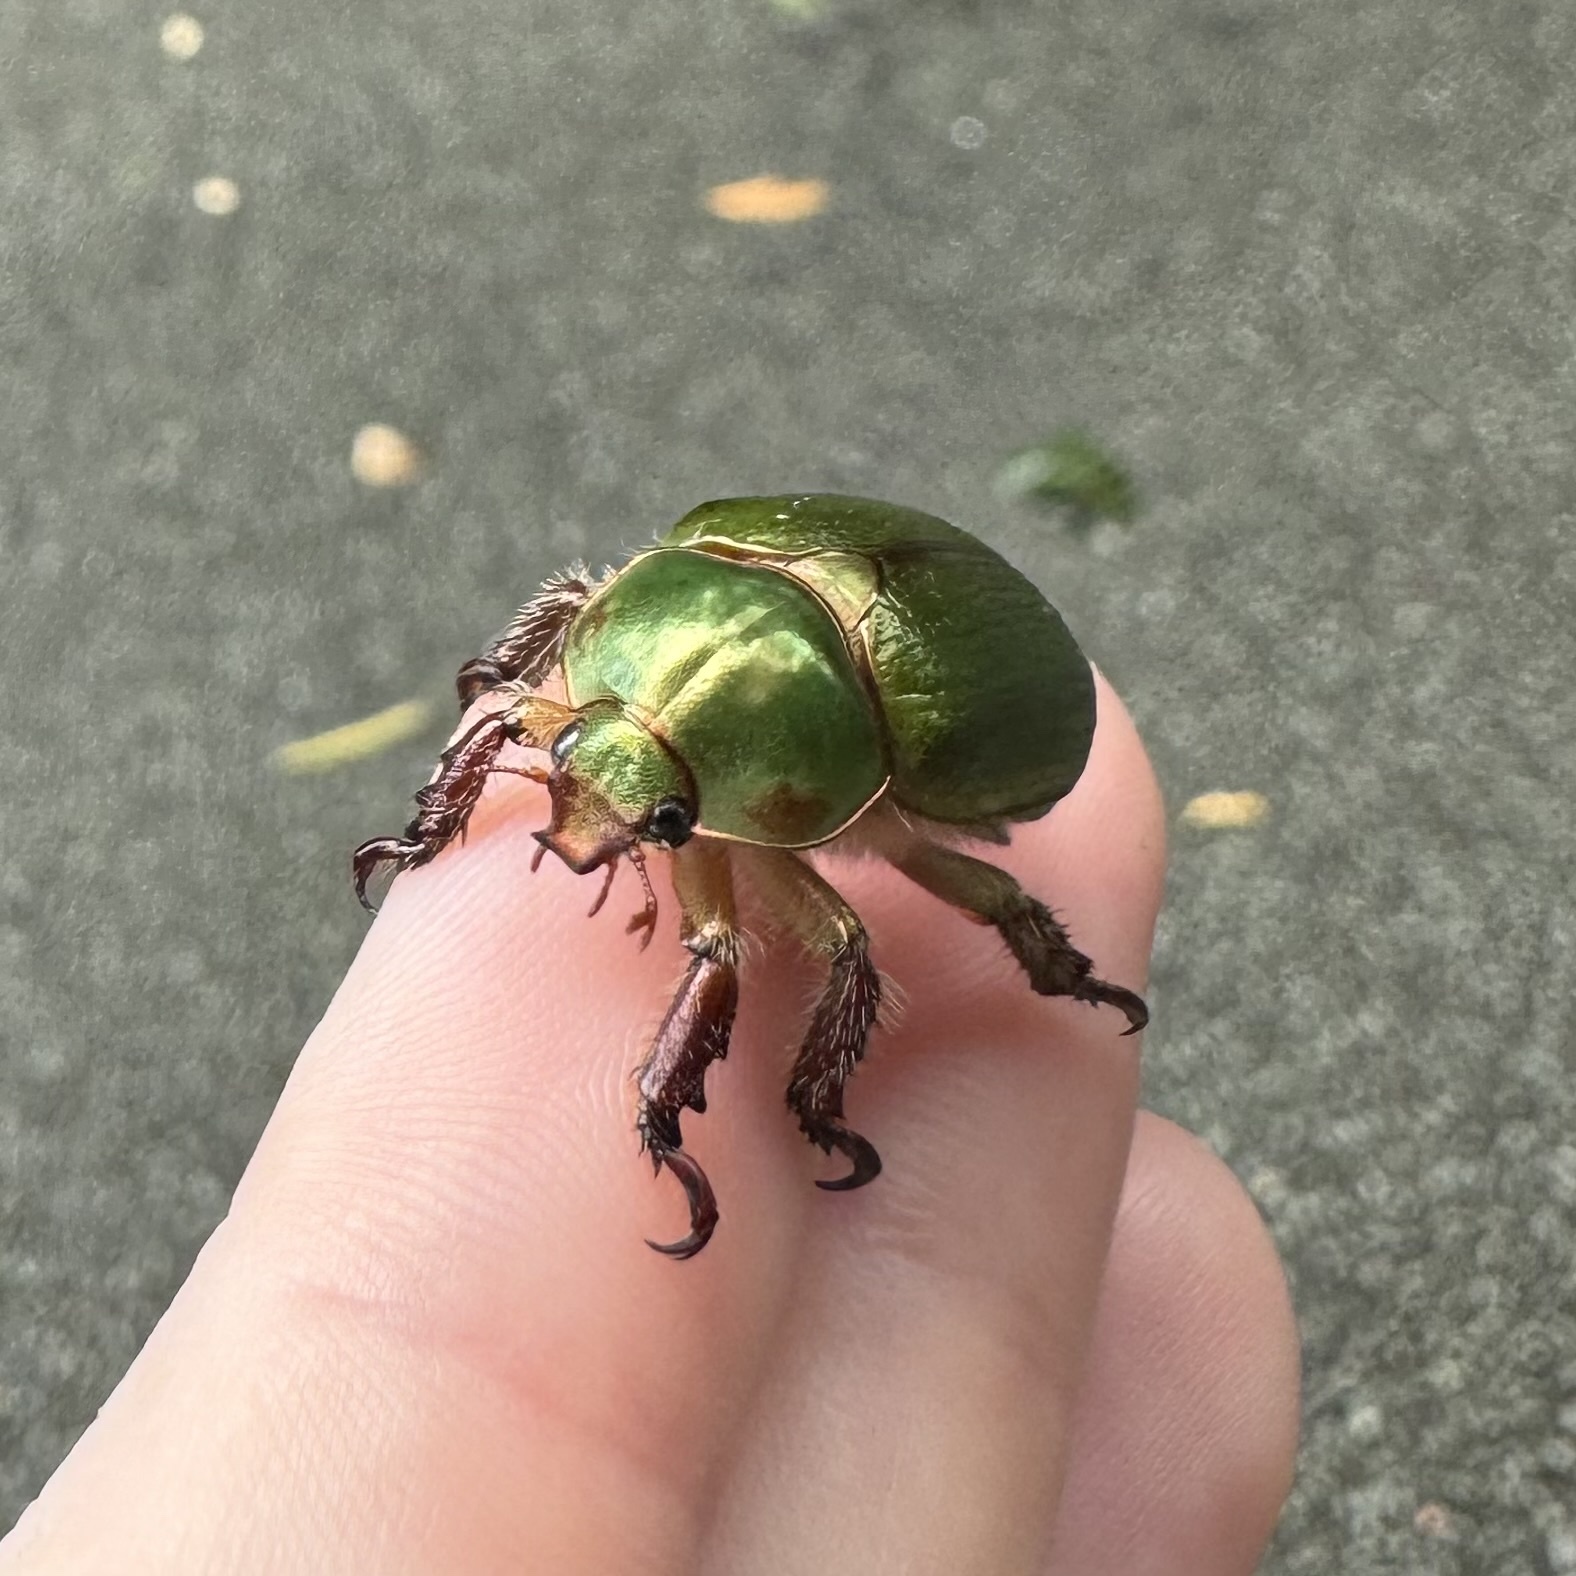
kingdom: Animalia
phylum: Arthropoda
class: Insecta
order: Coleoptera
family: Scarabaeidae
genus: Schizognathus
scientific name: Schizognathus compressicornis
